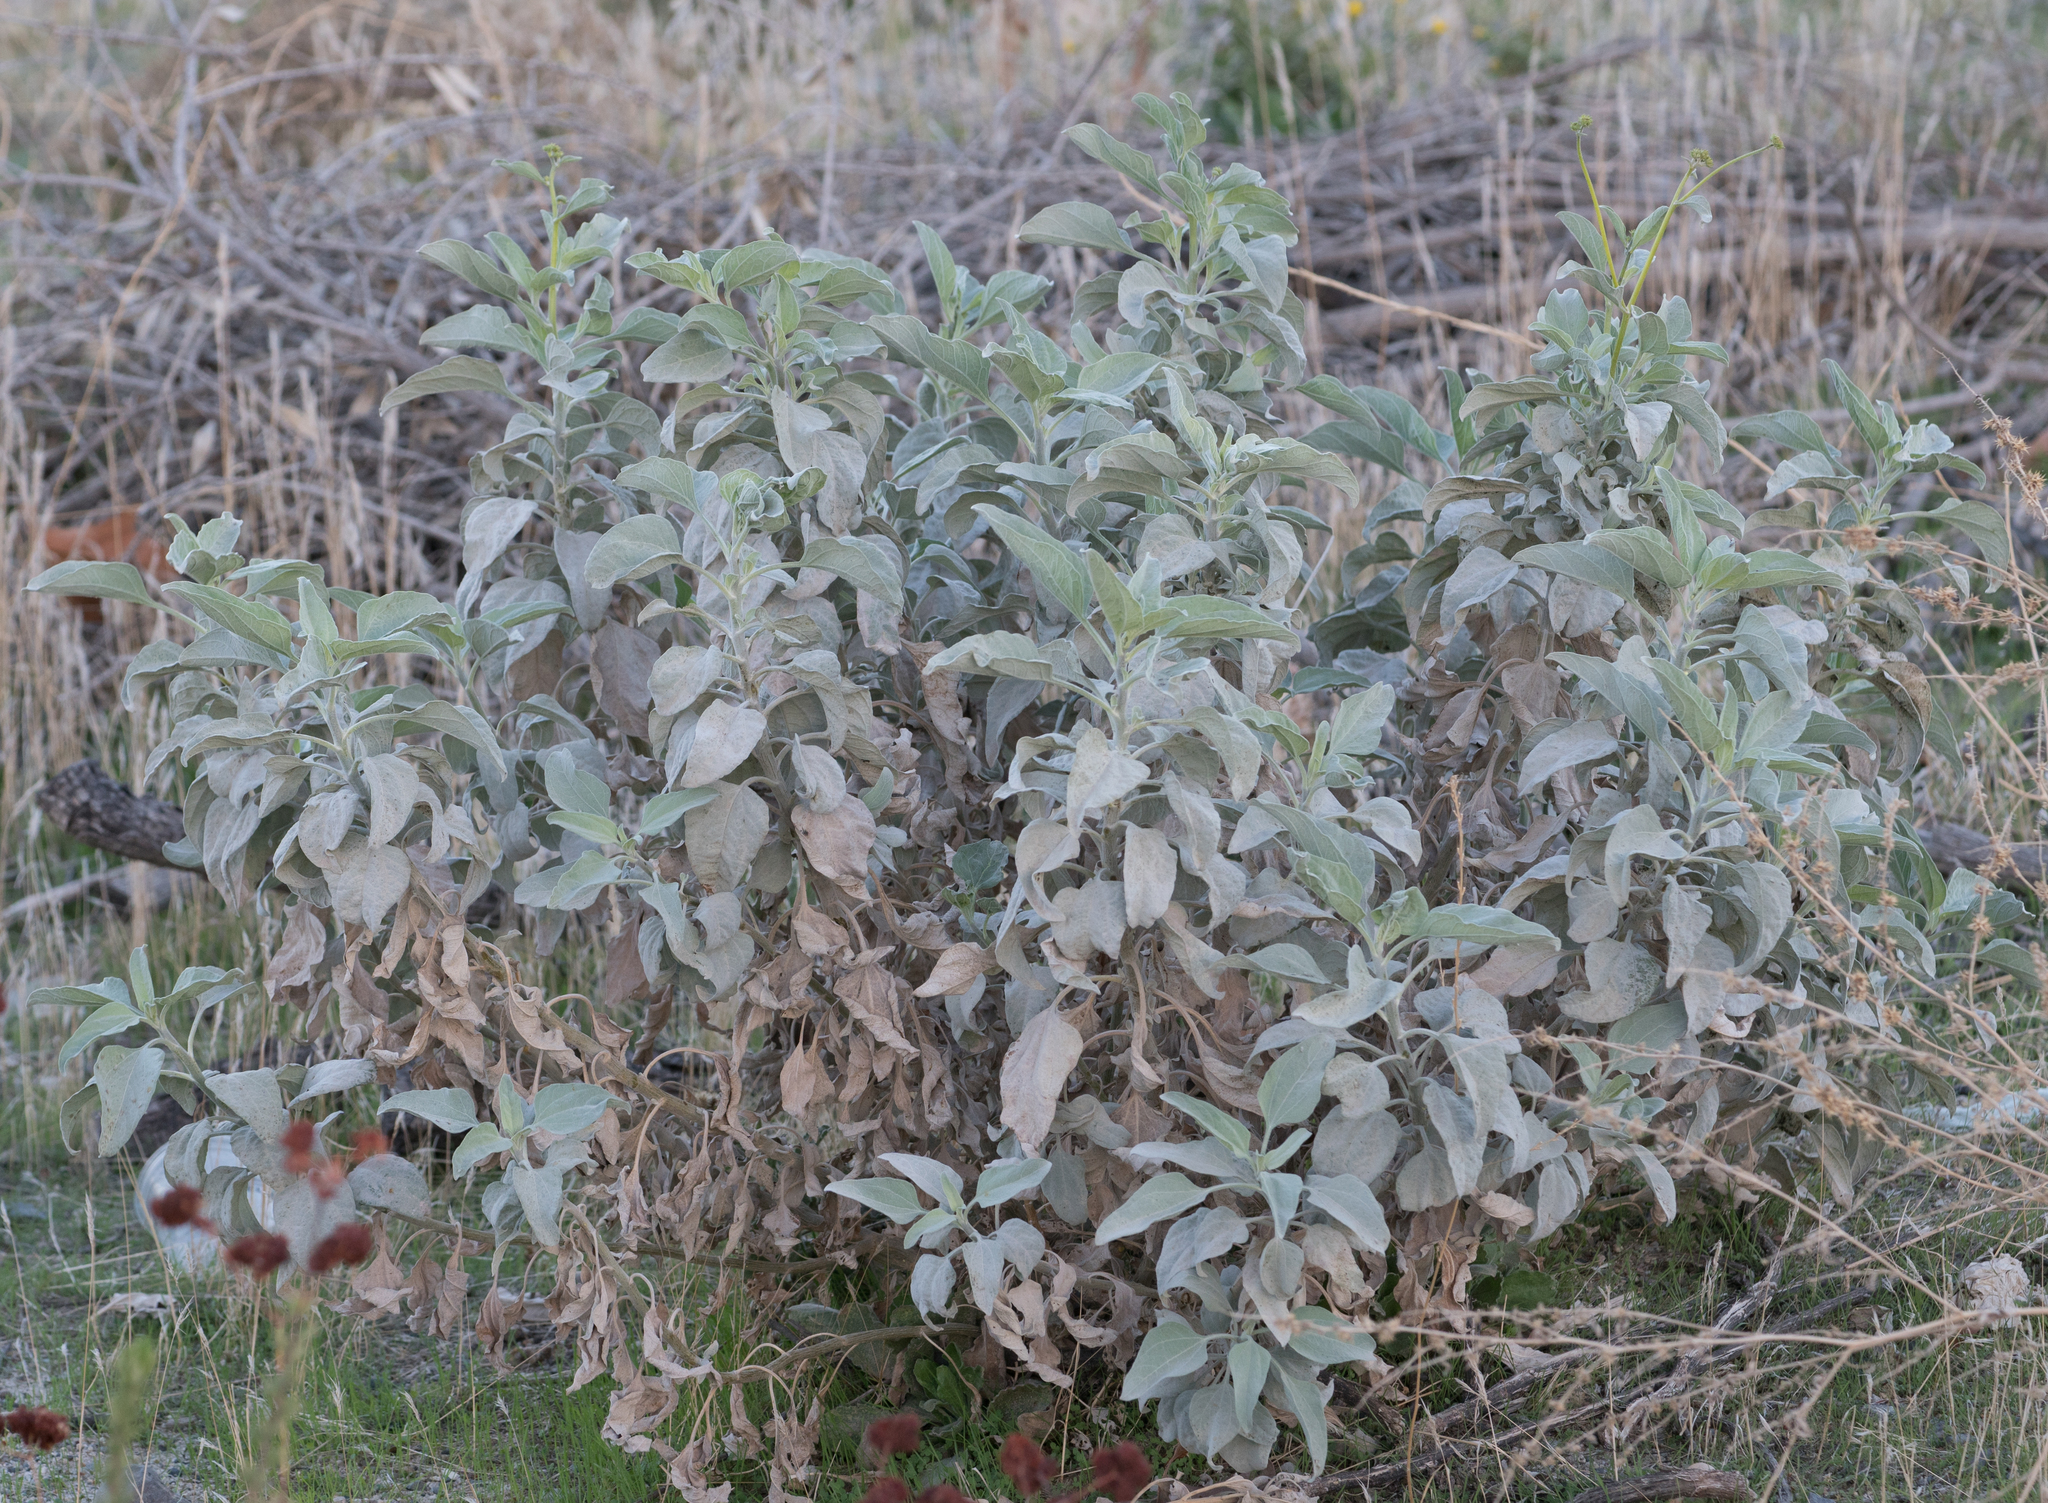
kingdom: Plantae
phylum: Tracheophyta
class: Magnoliopsida
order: Asterales
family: Asteraceae
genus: Encelia
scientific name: Encelia farinosa
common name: Brittlebush
